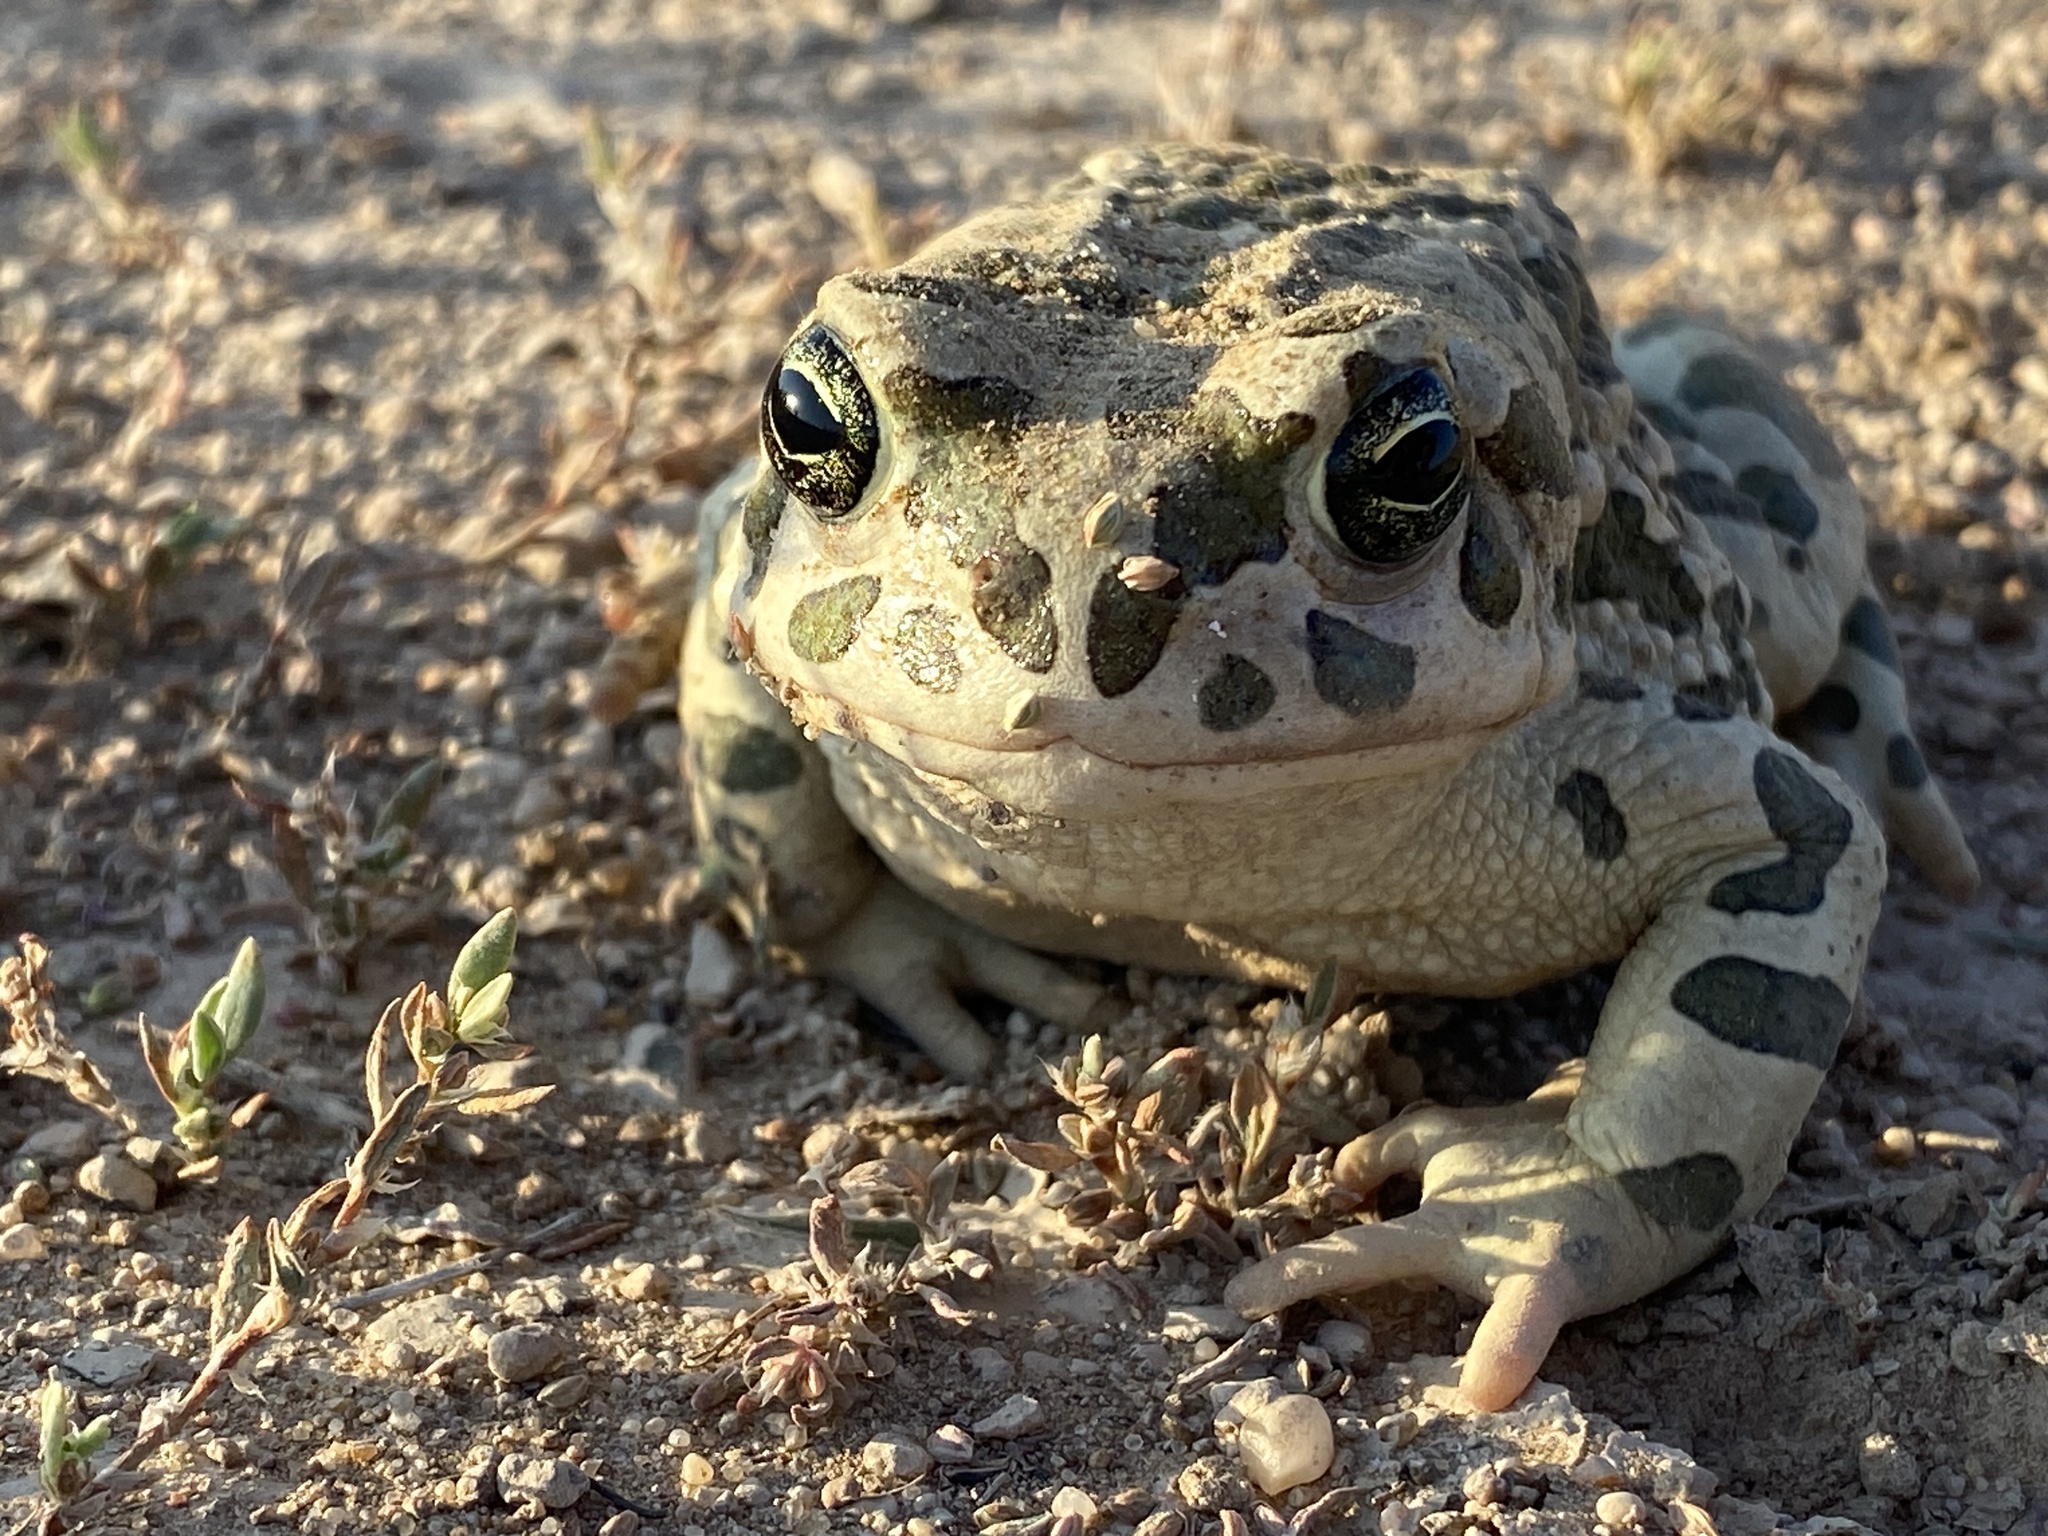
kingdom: Animalia
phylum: Chordata
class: Amphibia
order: Anura
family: Bufonidae
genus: Bufotes
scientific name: Bufotes viridis
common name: European green toad
